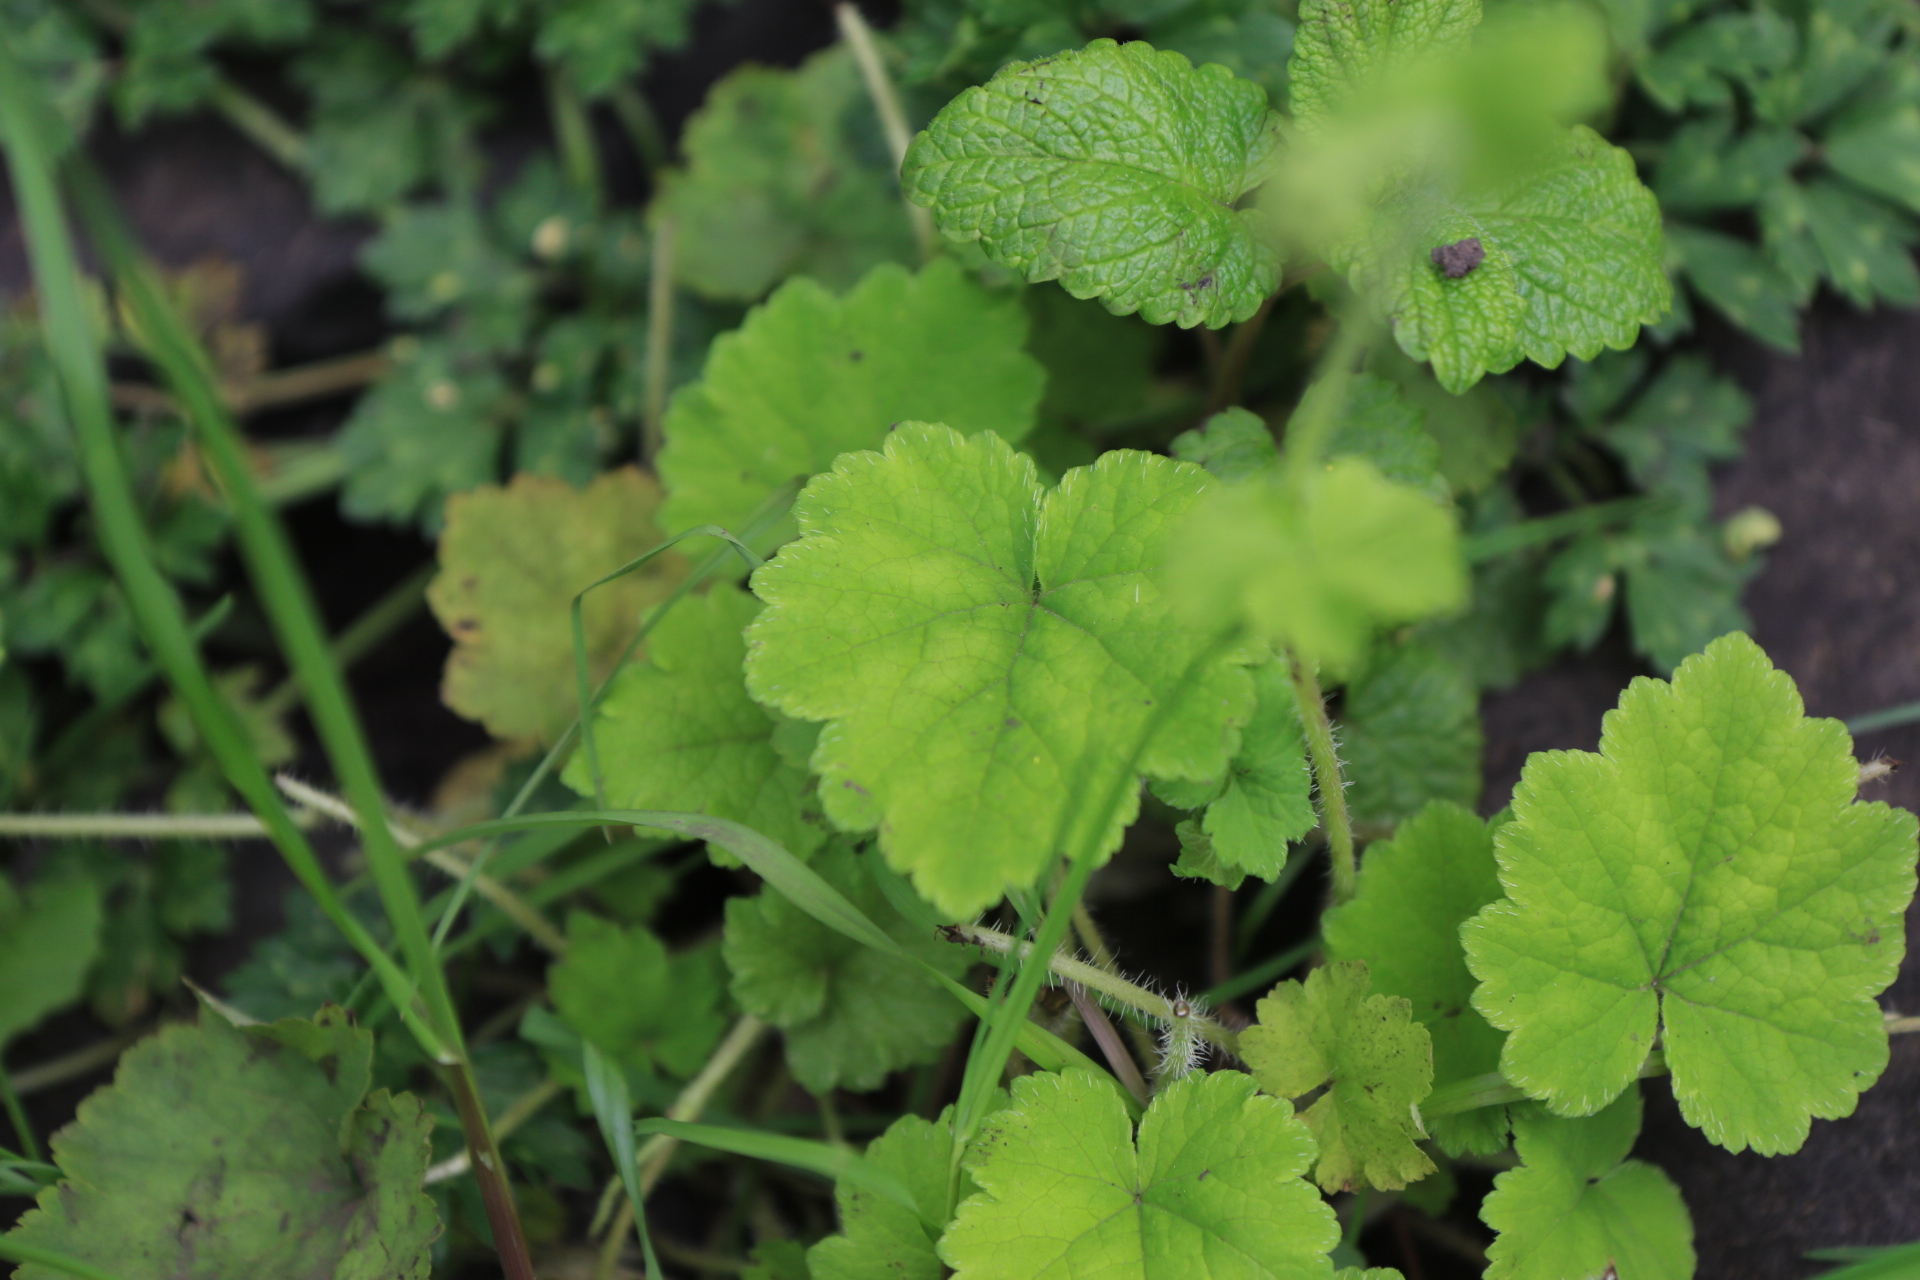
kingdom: Plantae
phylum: Tracheophyta
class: Magnoliopsida
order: Saxifragales
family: Saxifragaceae
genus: Tellima
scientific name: Tellima grandiflora
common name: Fringecups
